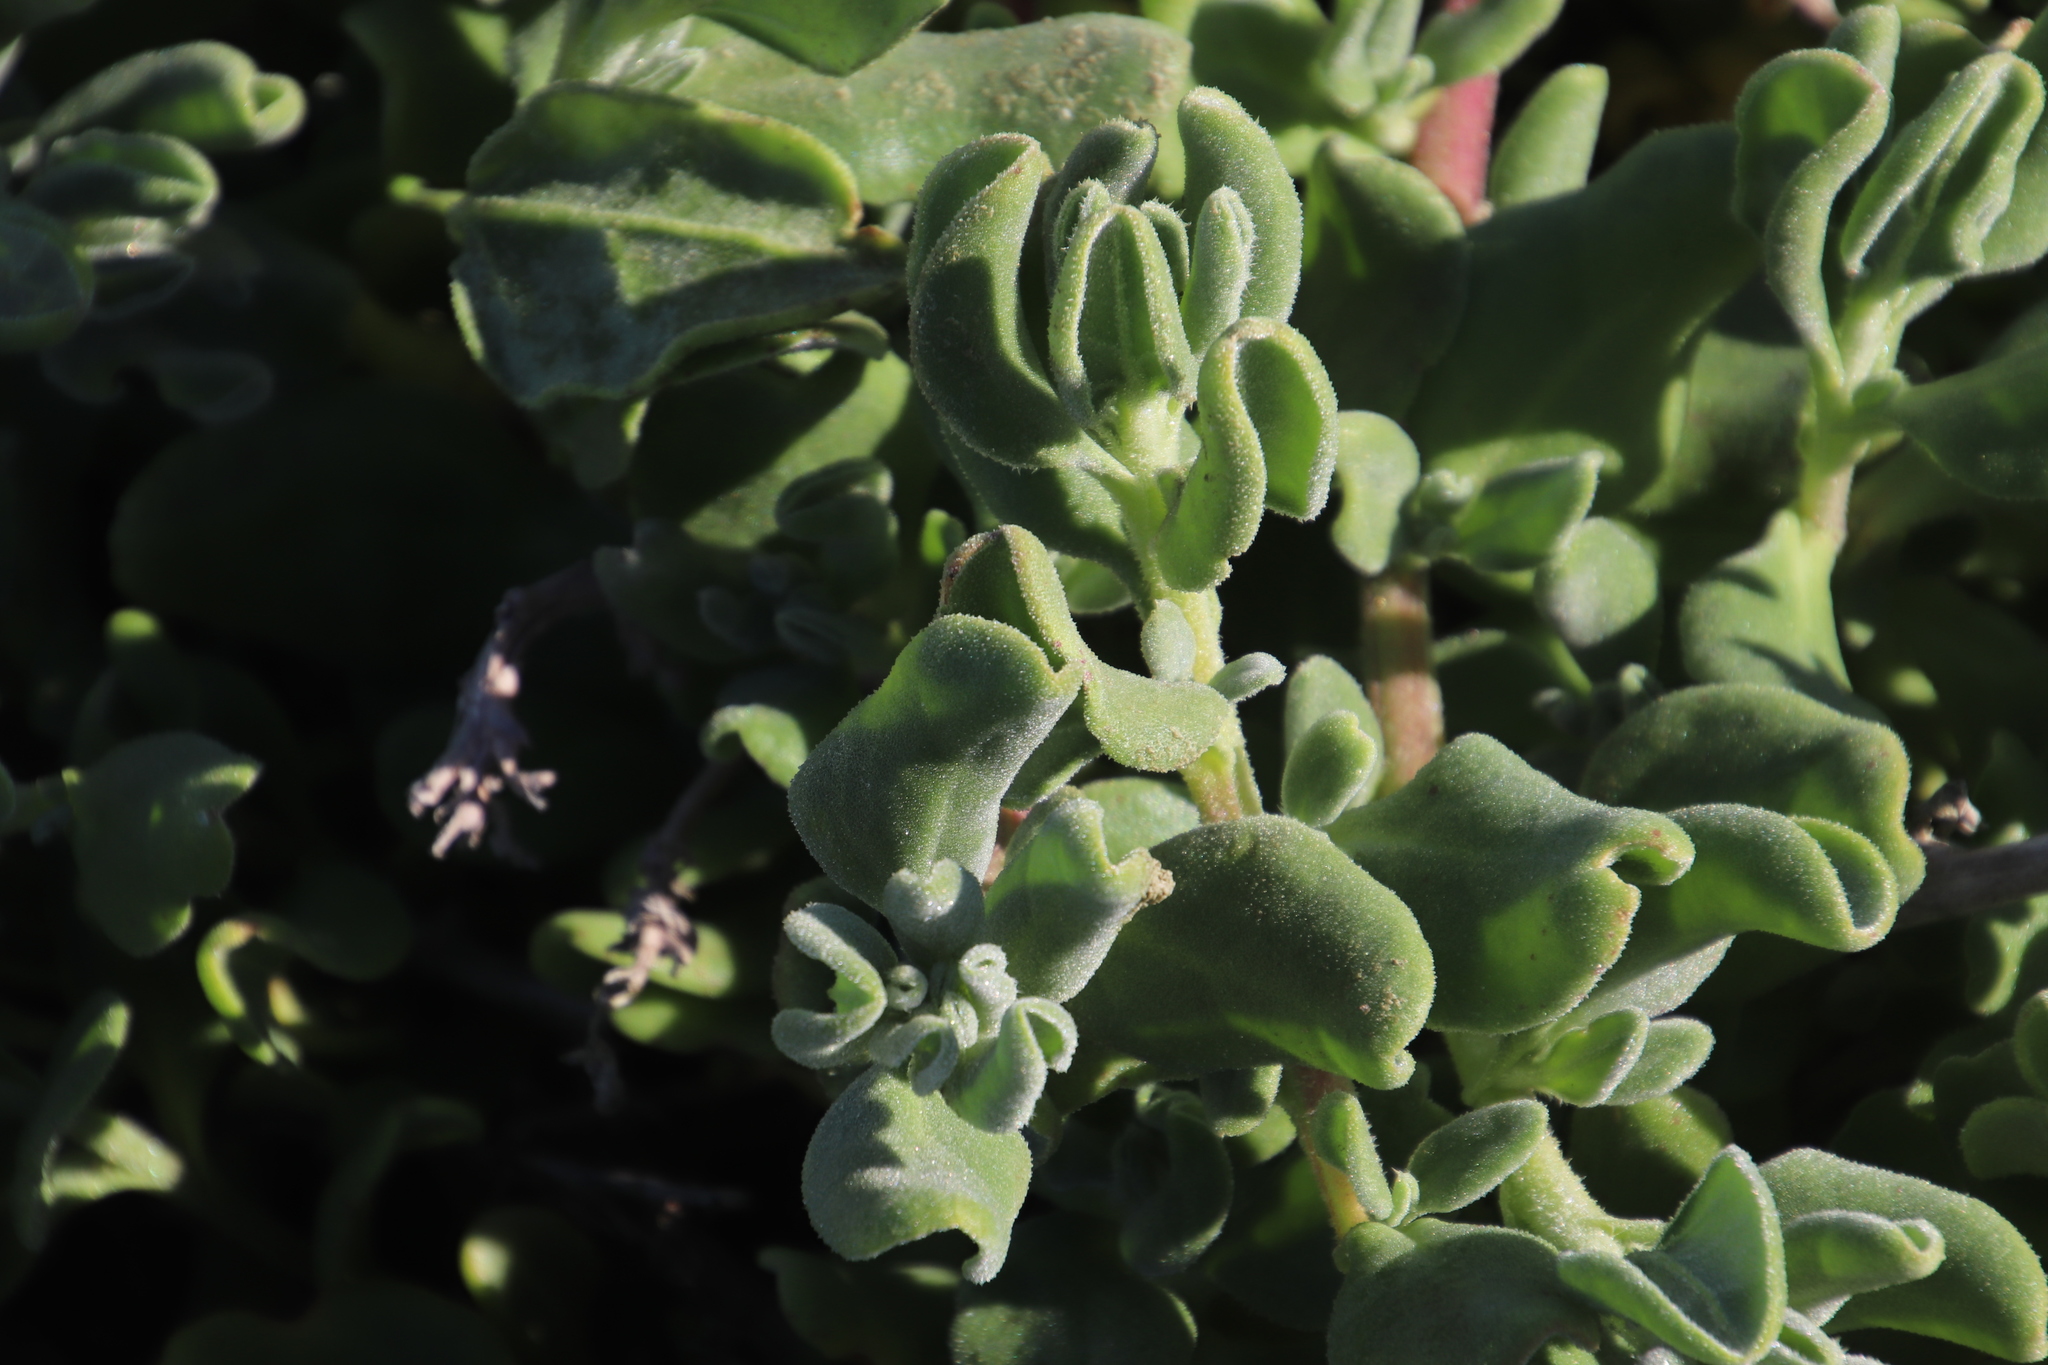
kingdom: Plantae
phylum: Tracheophyta
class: Magnoliopsida
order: Caryophyllales
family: Aizoaceae
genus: Tetragonia
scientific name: Tetragonia decumbens
